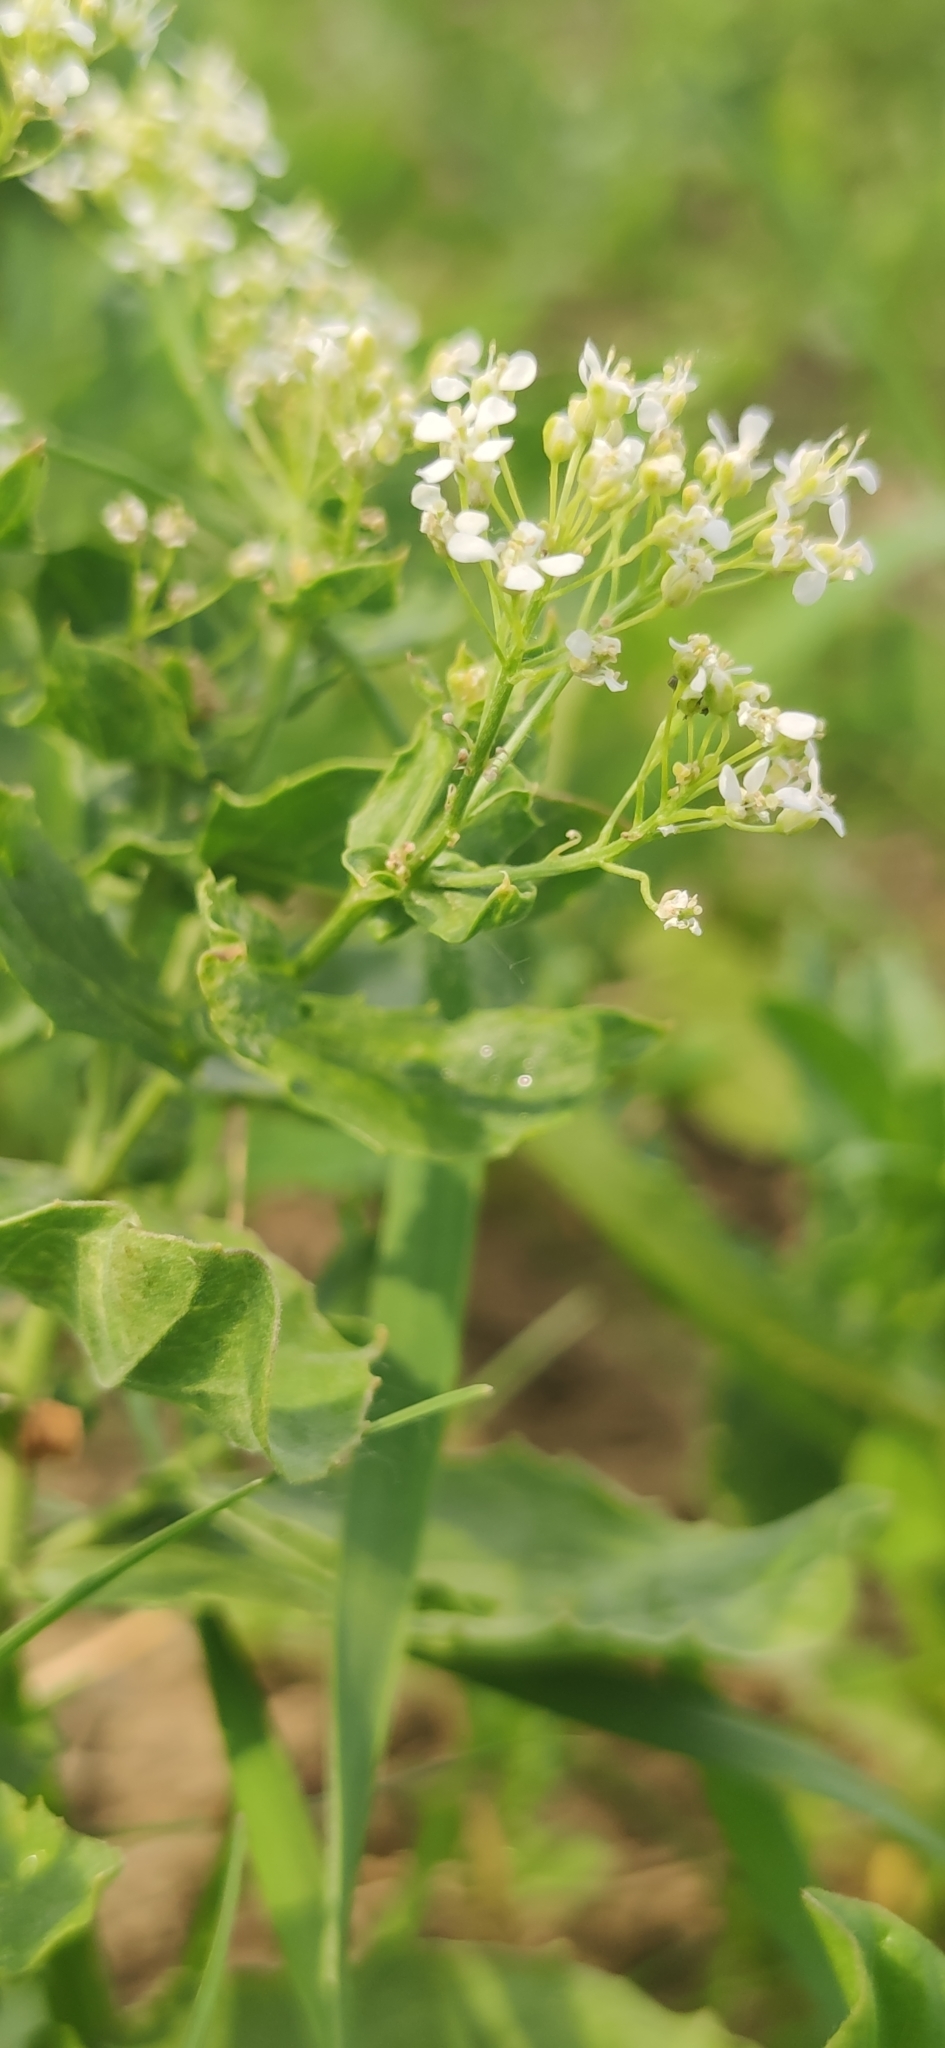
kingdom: Plantae
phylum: Tracheophyta
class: Magnoliopsida
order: Brassicales
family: Brassicaceae
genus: Lepidium
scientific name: Lepidium draba
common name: Hoary cress
